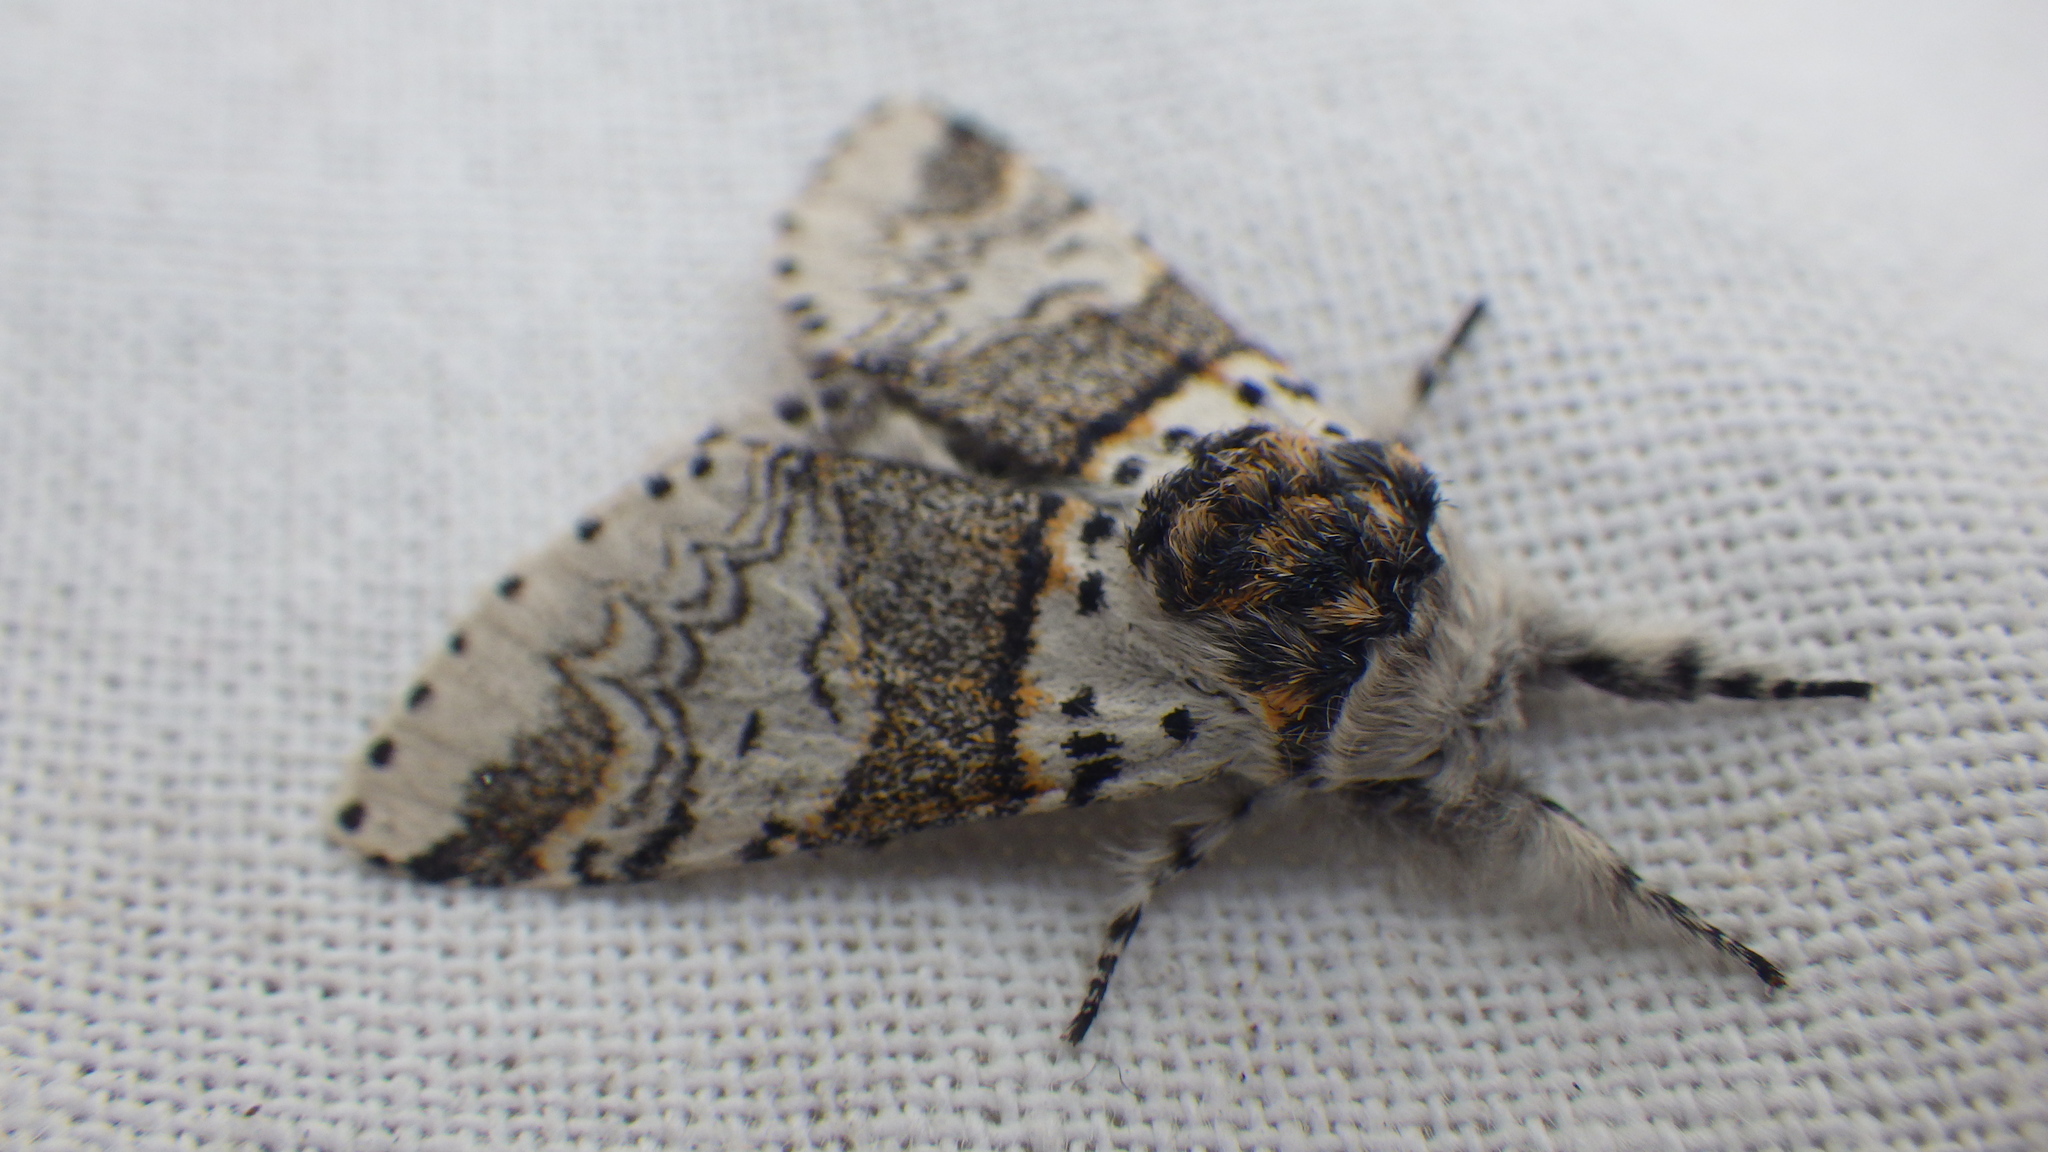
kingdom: Animalia
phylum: Arthropoda
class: Insecta
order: Lepidoptera
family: Notodontidae
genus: Furcula
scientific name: Furcula furcula
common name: Sallow kitten
